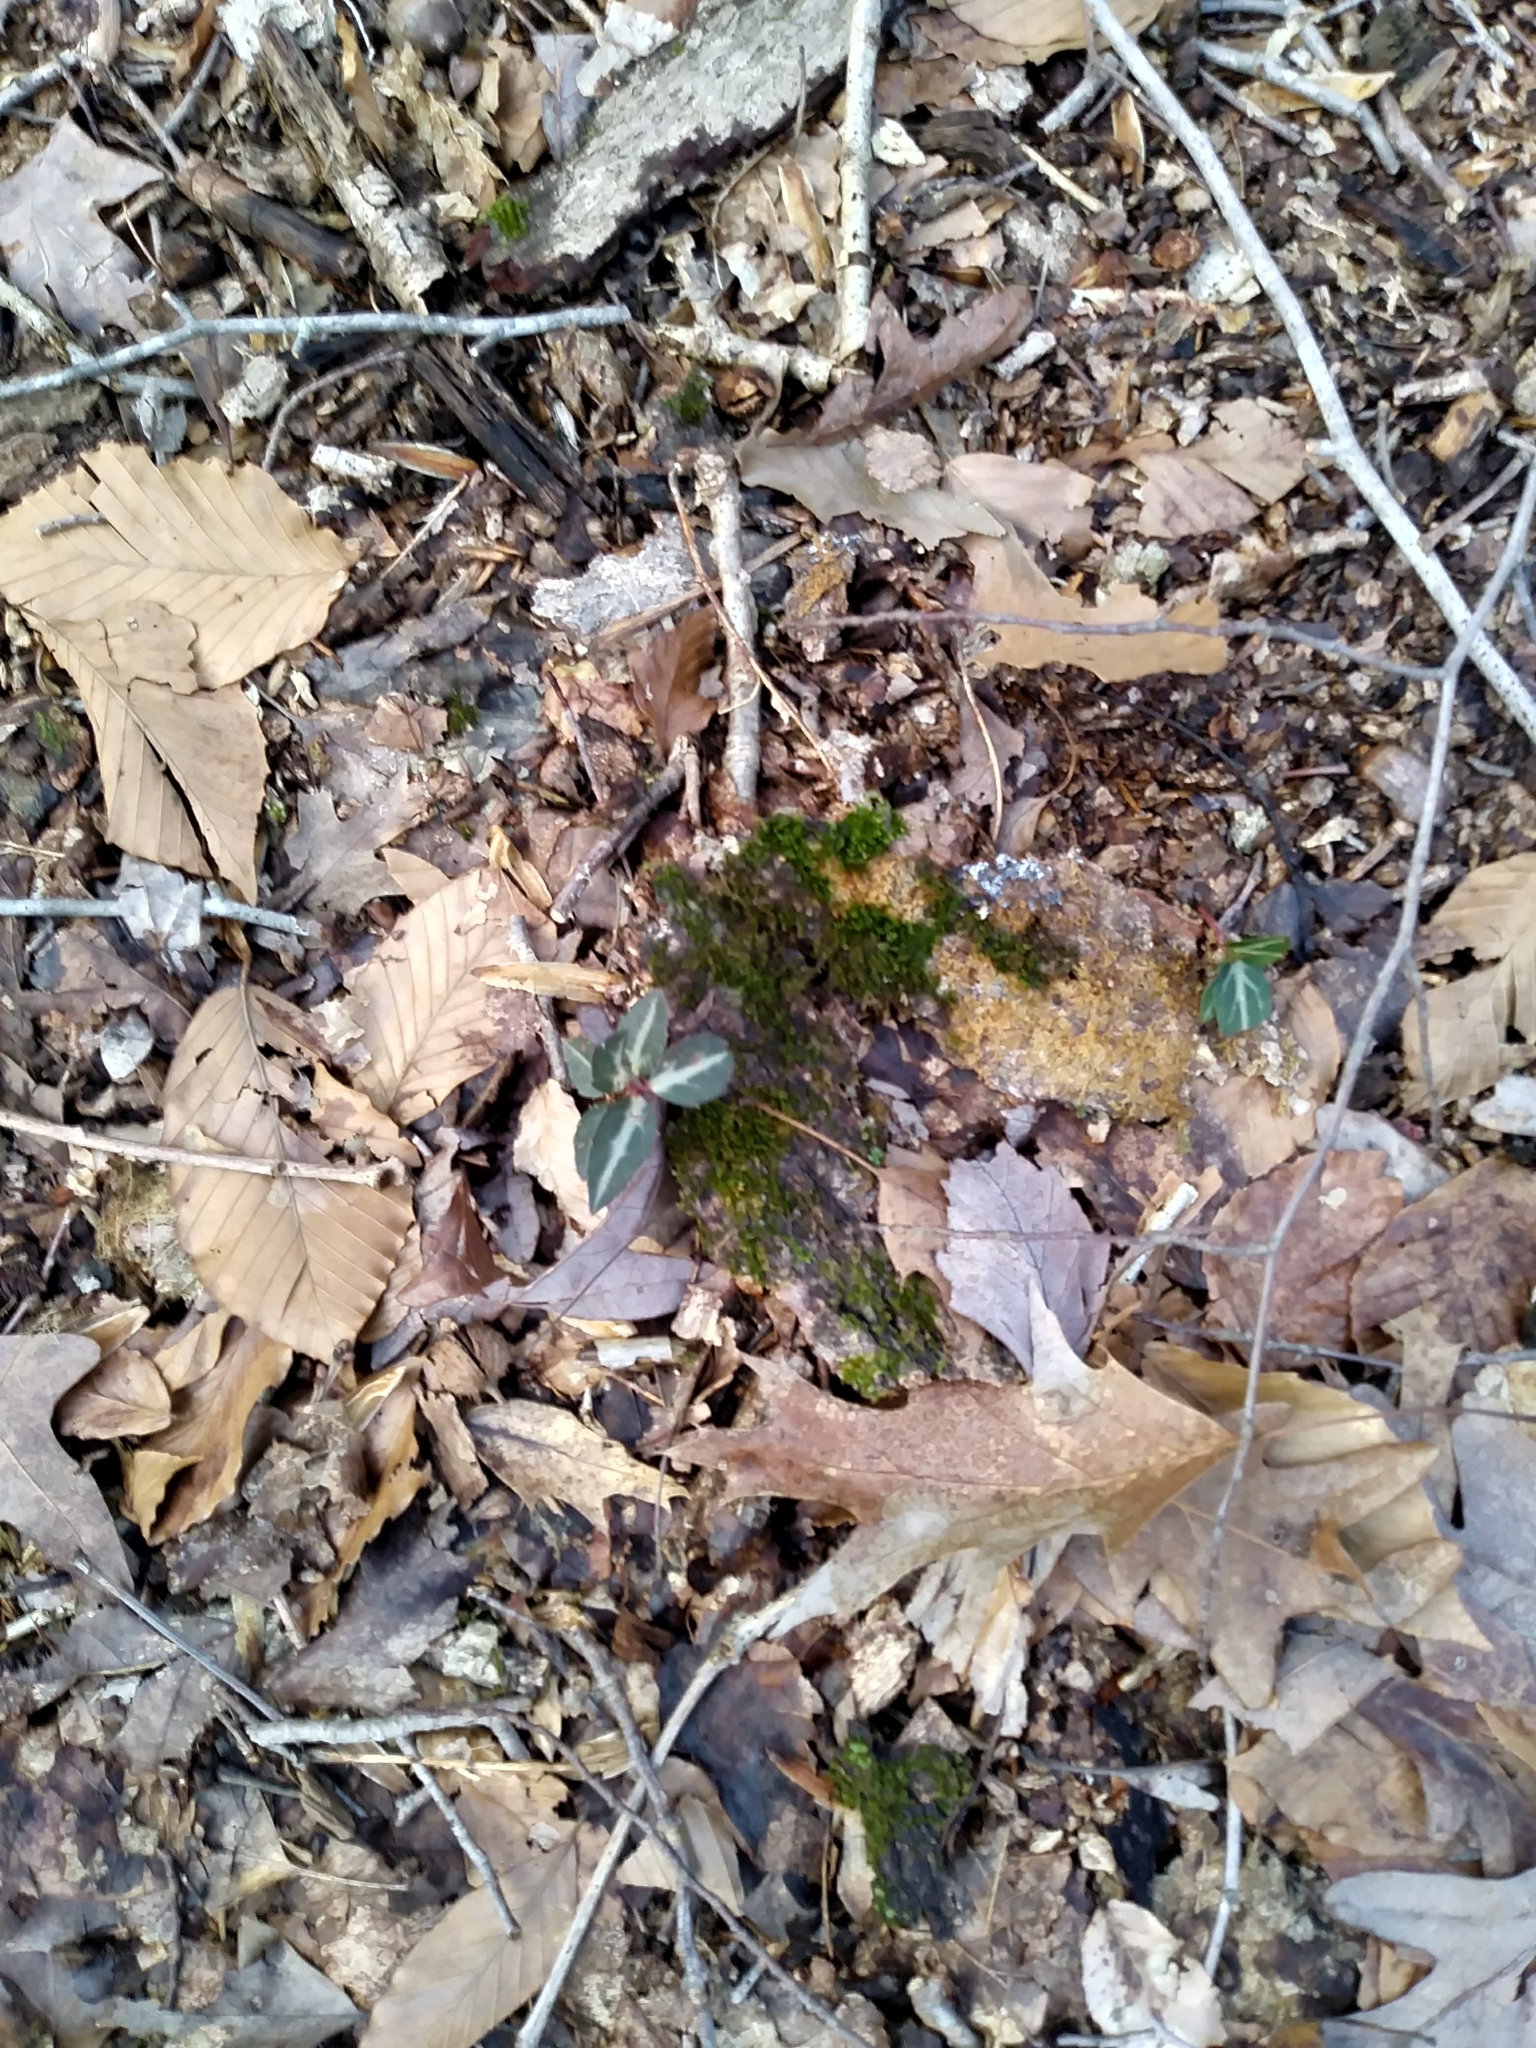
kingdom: Plantae
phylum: Tracheophyta
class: Magnoliopsida
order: Ericales
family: Ericaceae
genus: Chimaphila
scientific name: Chimaphila maculata
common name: Spotted pipsissewa
